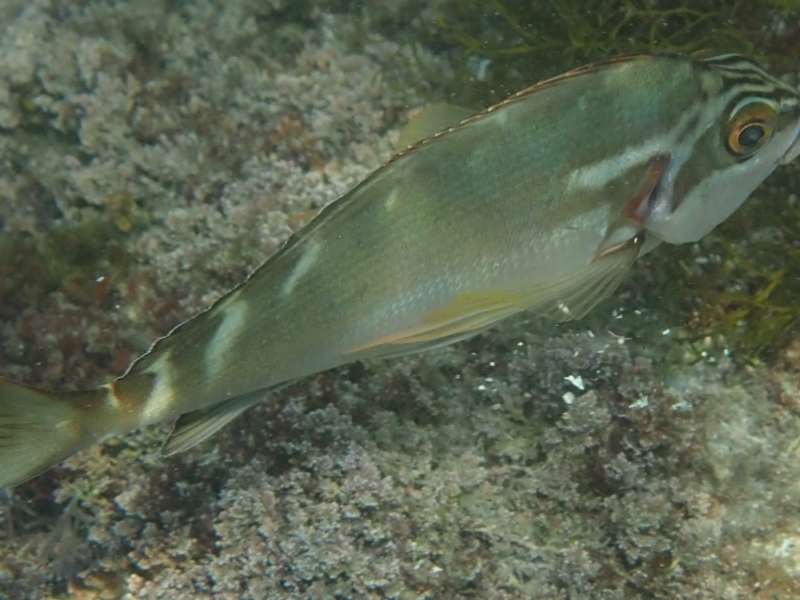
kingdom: Animalia
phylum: Chordata
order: Perciformes
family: Latridae
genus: Morwong
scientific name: Morwong fuscus
